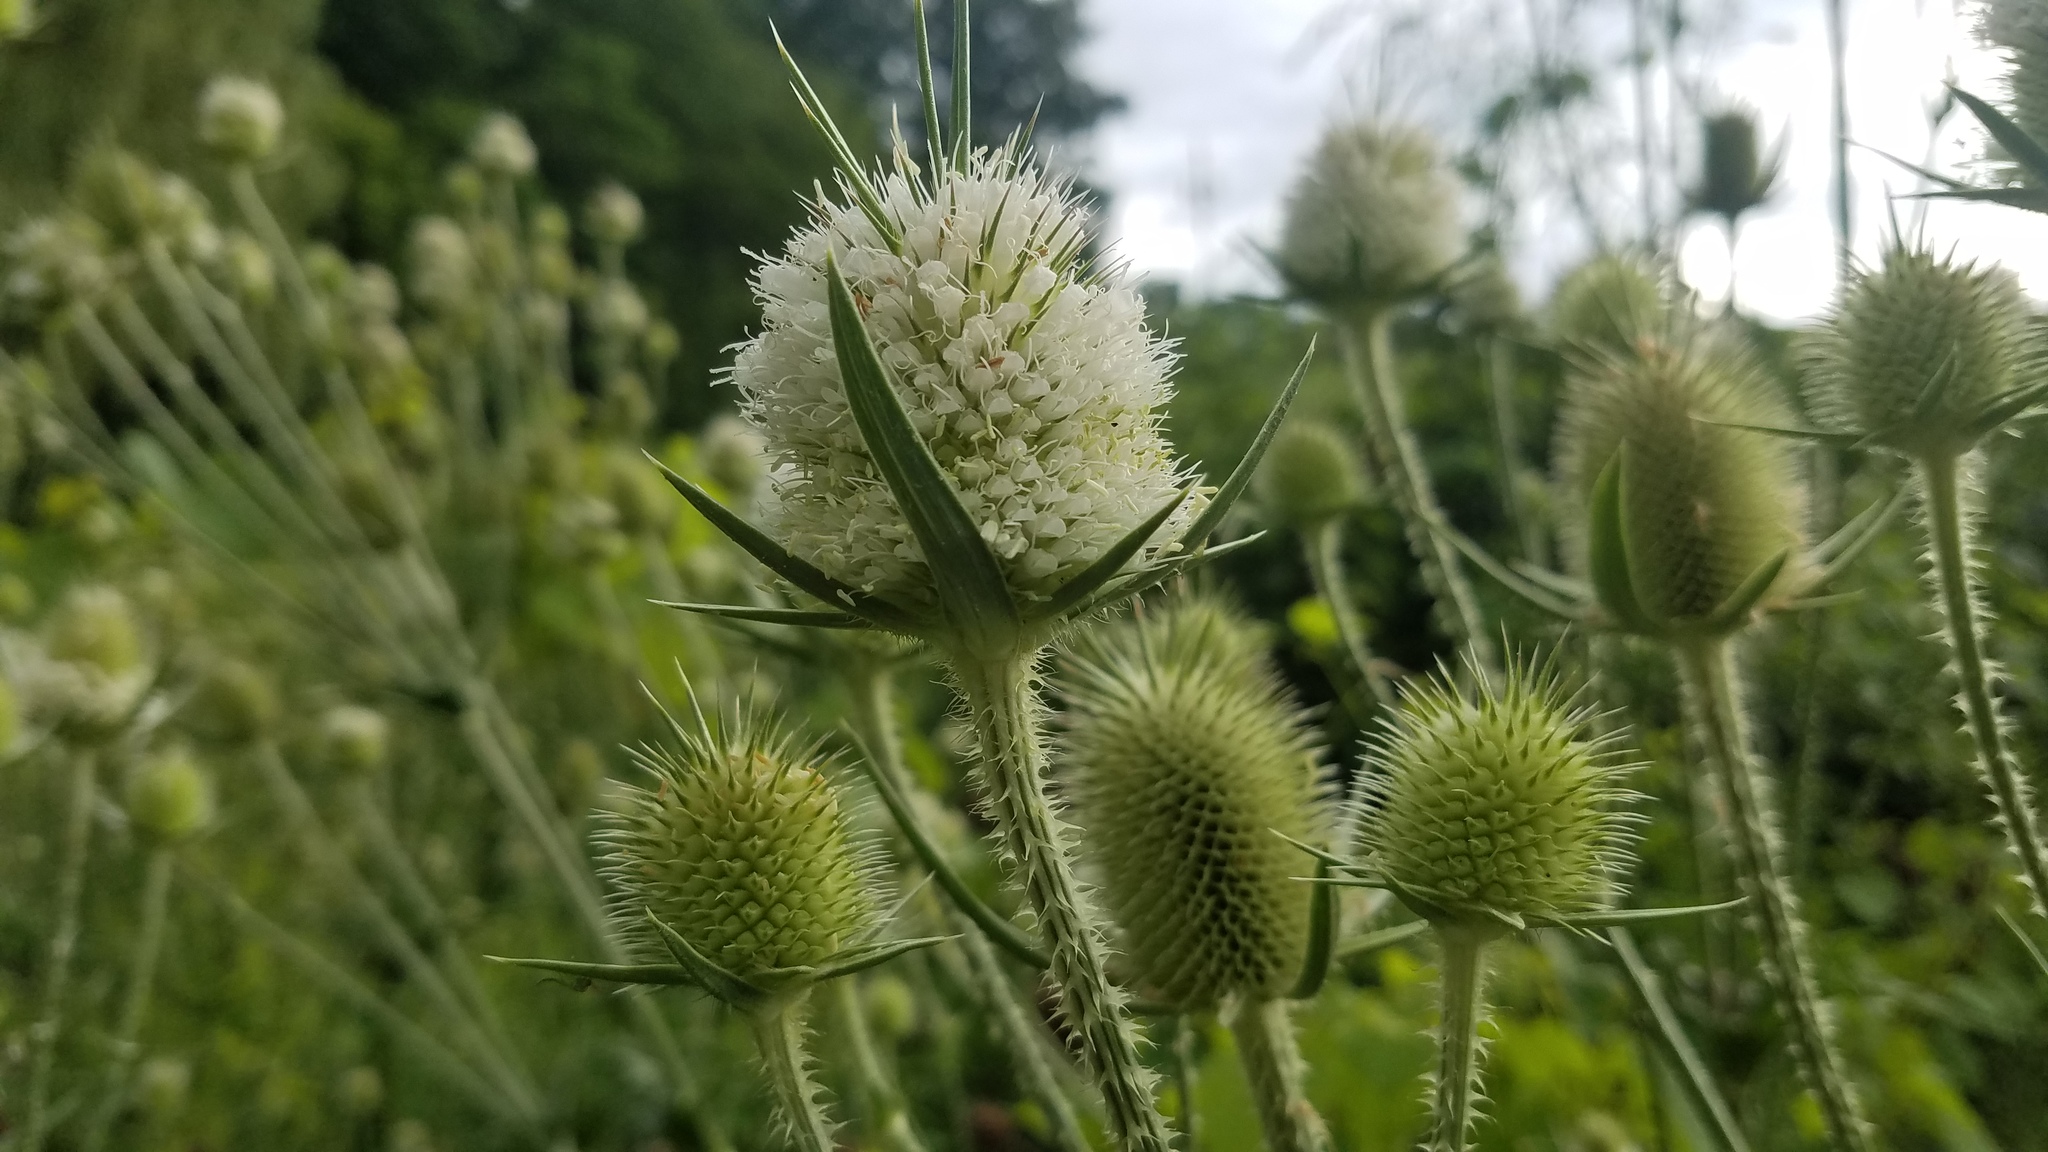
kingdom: Plantae
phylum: Tracheophyta
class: Magnoliopsida
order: Dipsacales
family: Caprifoliaceae
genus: Dipsacus
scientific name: Dipsacus laciniatus
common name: Cut-leaved teasel
